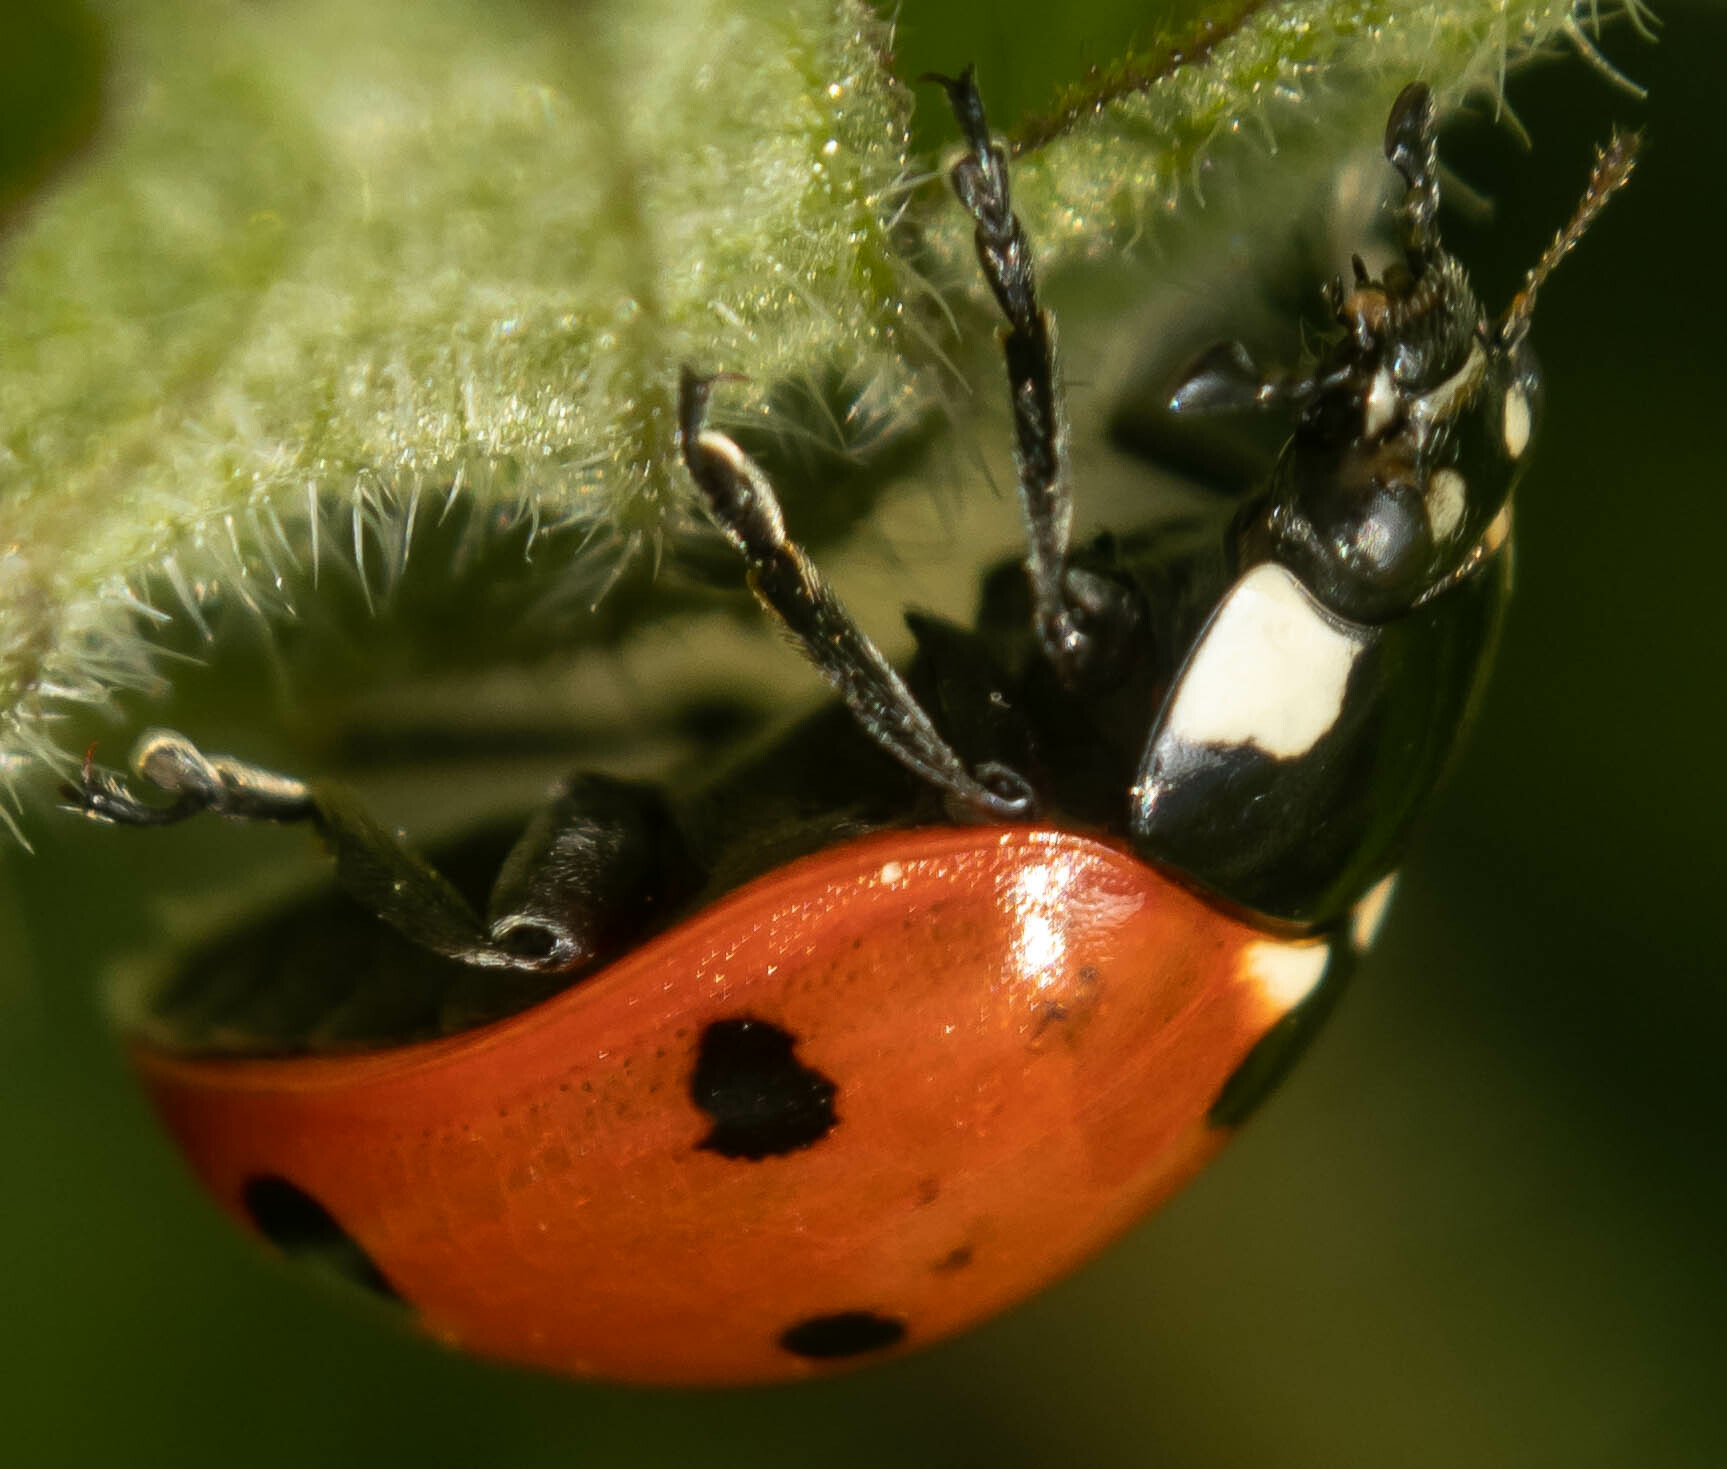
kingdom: Animalia
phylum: Arthropoda
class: Insecta
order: Coleoptera
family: Coccinellidae
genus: Coccinella
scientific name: Coccinella septempunctata
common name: Sevenspotted lady beetle
